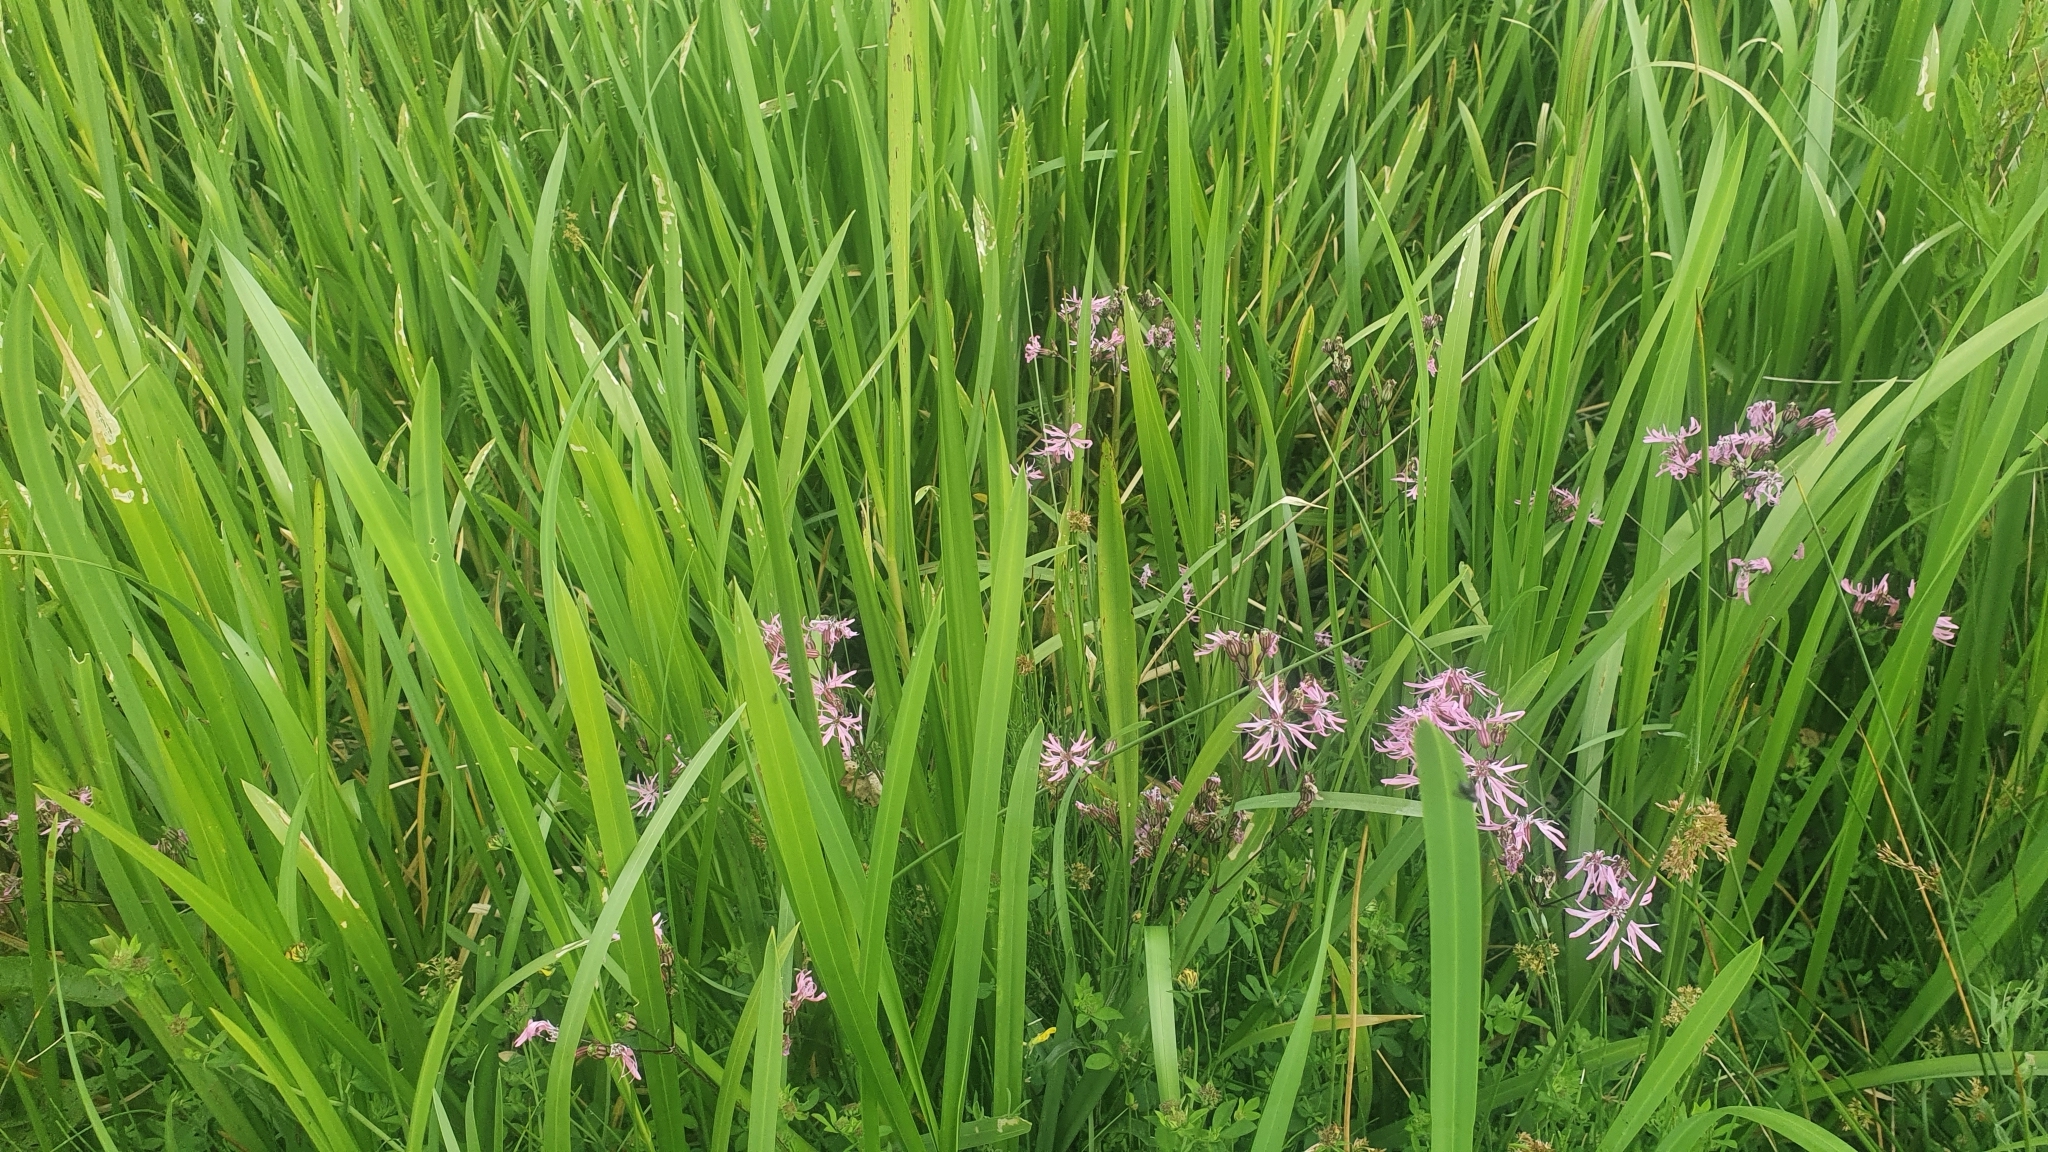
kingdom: Plantae
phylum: Tracheophyta
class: Magnoliopsida
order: Caryophyllales
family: Caryophyllaceae
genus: Silene
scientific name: Silene flos-cuculi
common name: Ragged-robin
